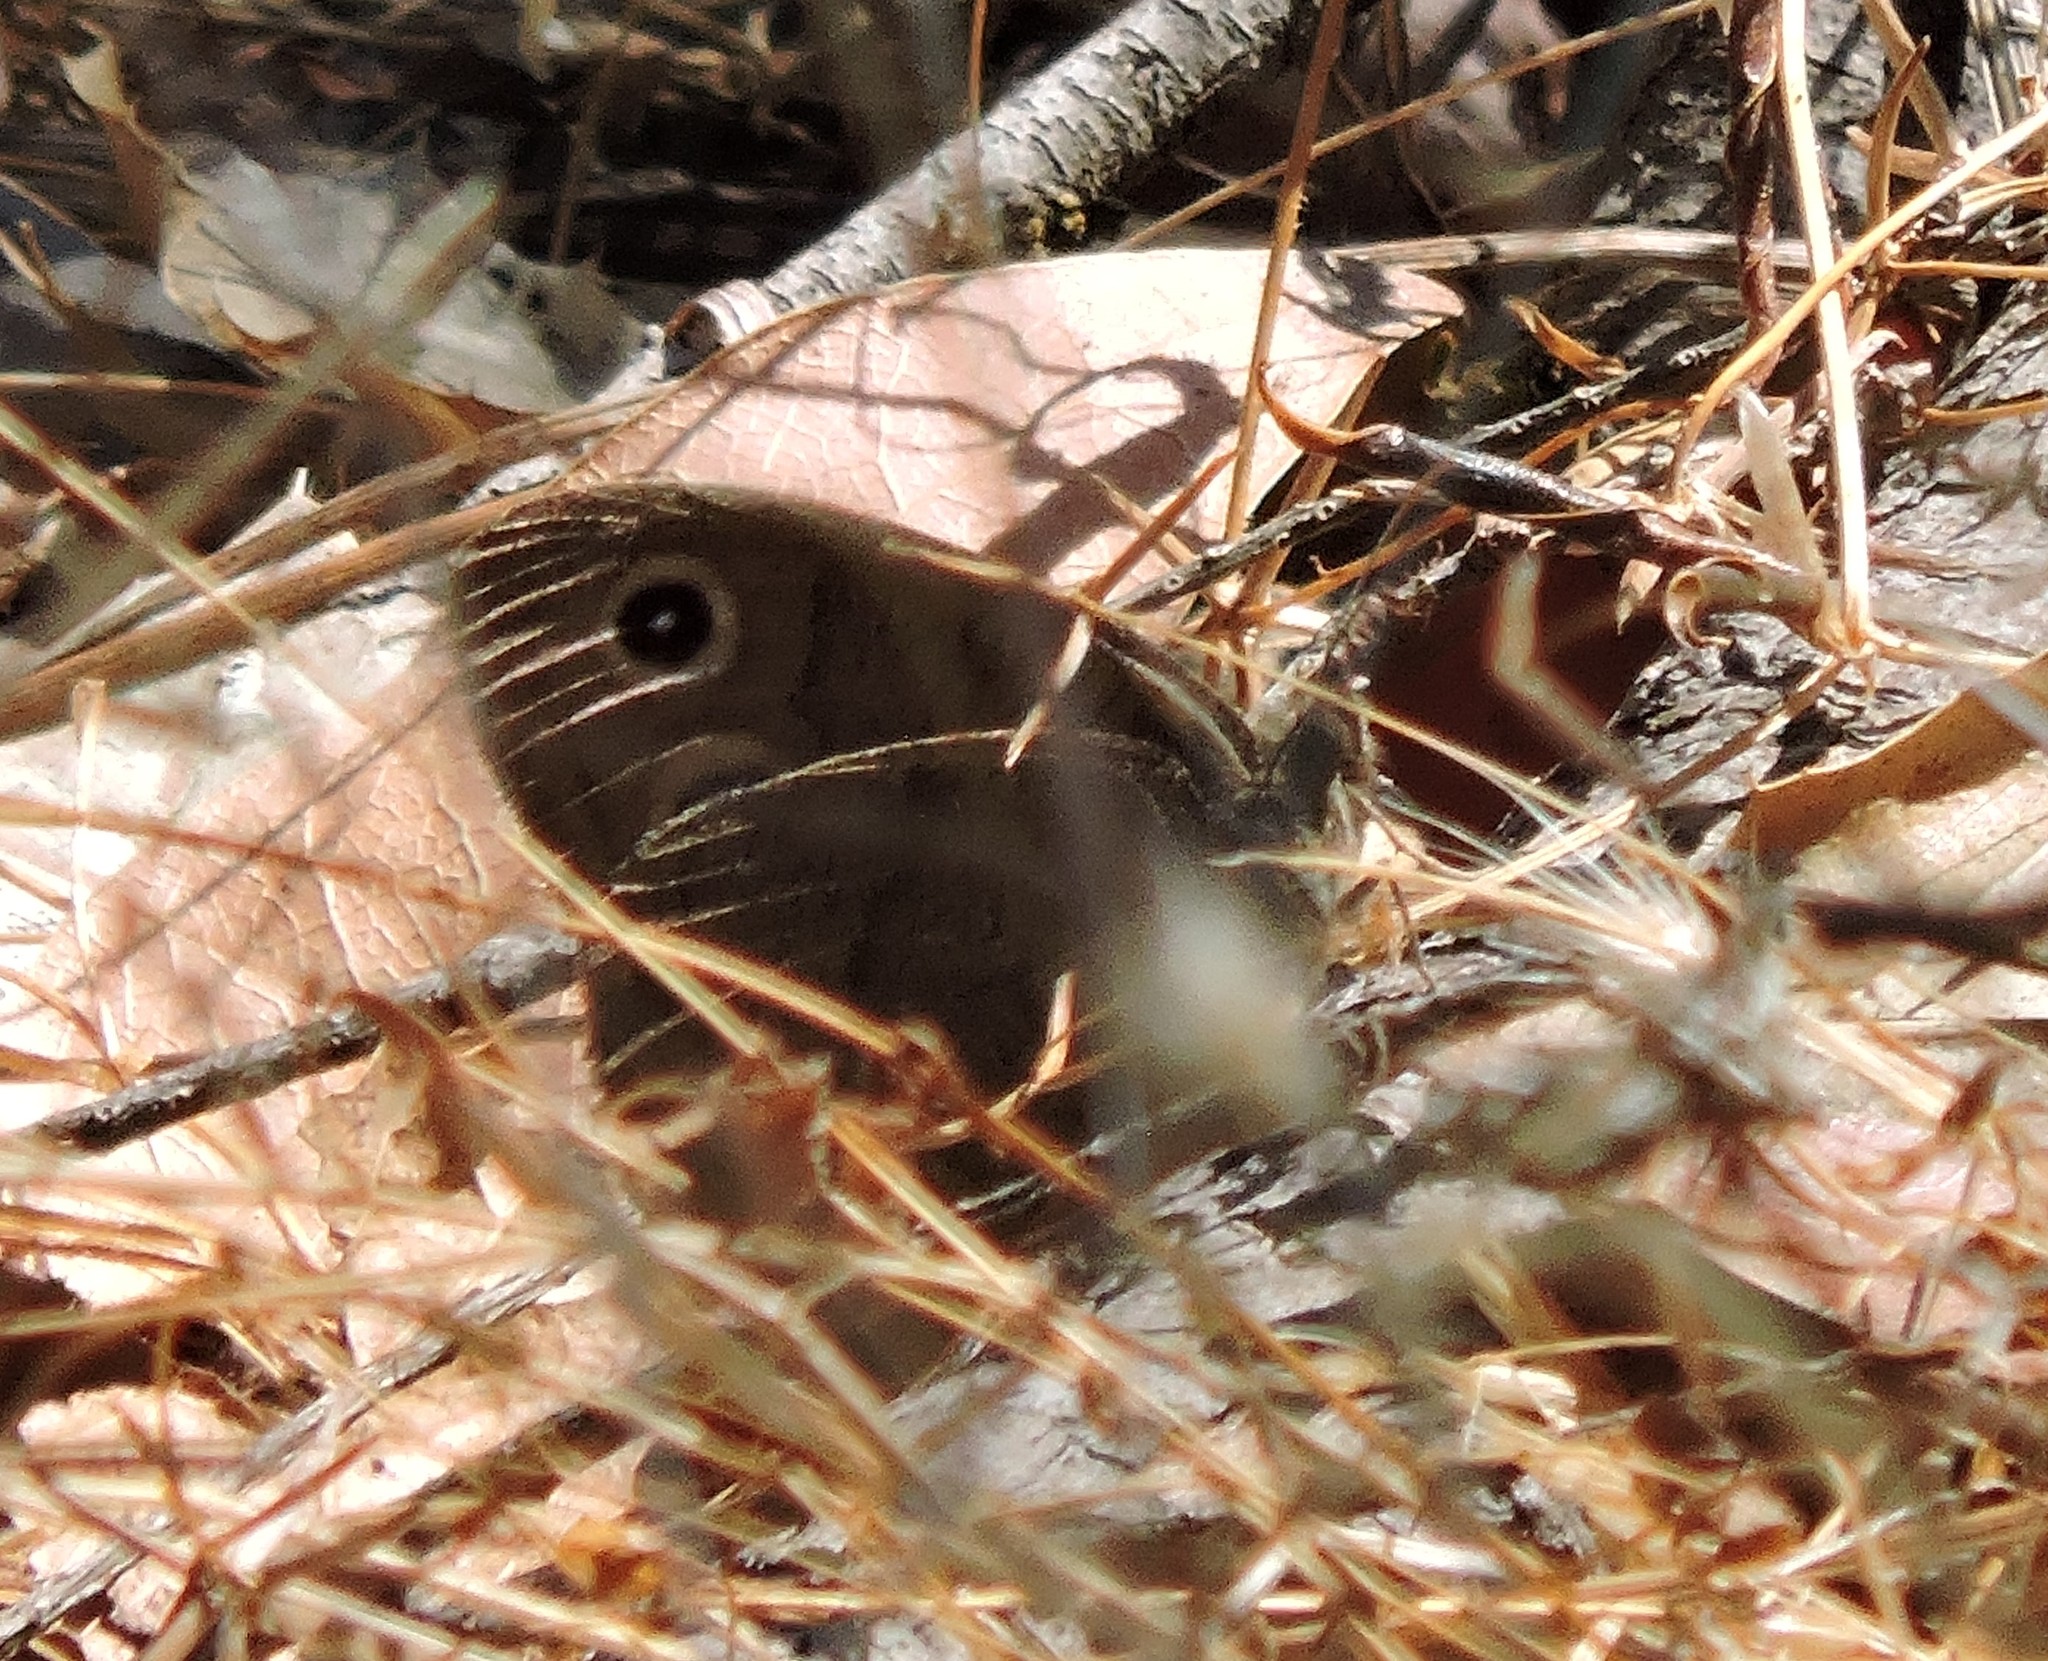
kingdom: Animalia
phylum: Arthropoda
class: Insecta
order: Lepidoptera
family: Nymphalidae
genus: Cercyonis
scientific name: Cercyonis pegala
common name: Common wood-nymph
